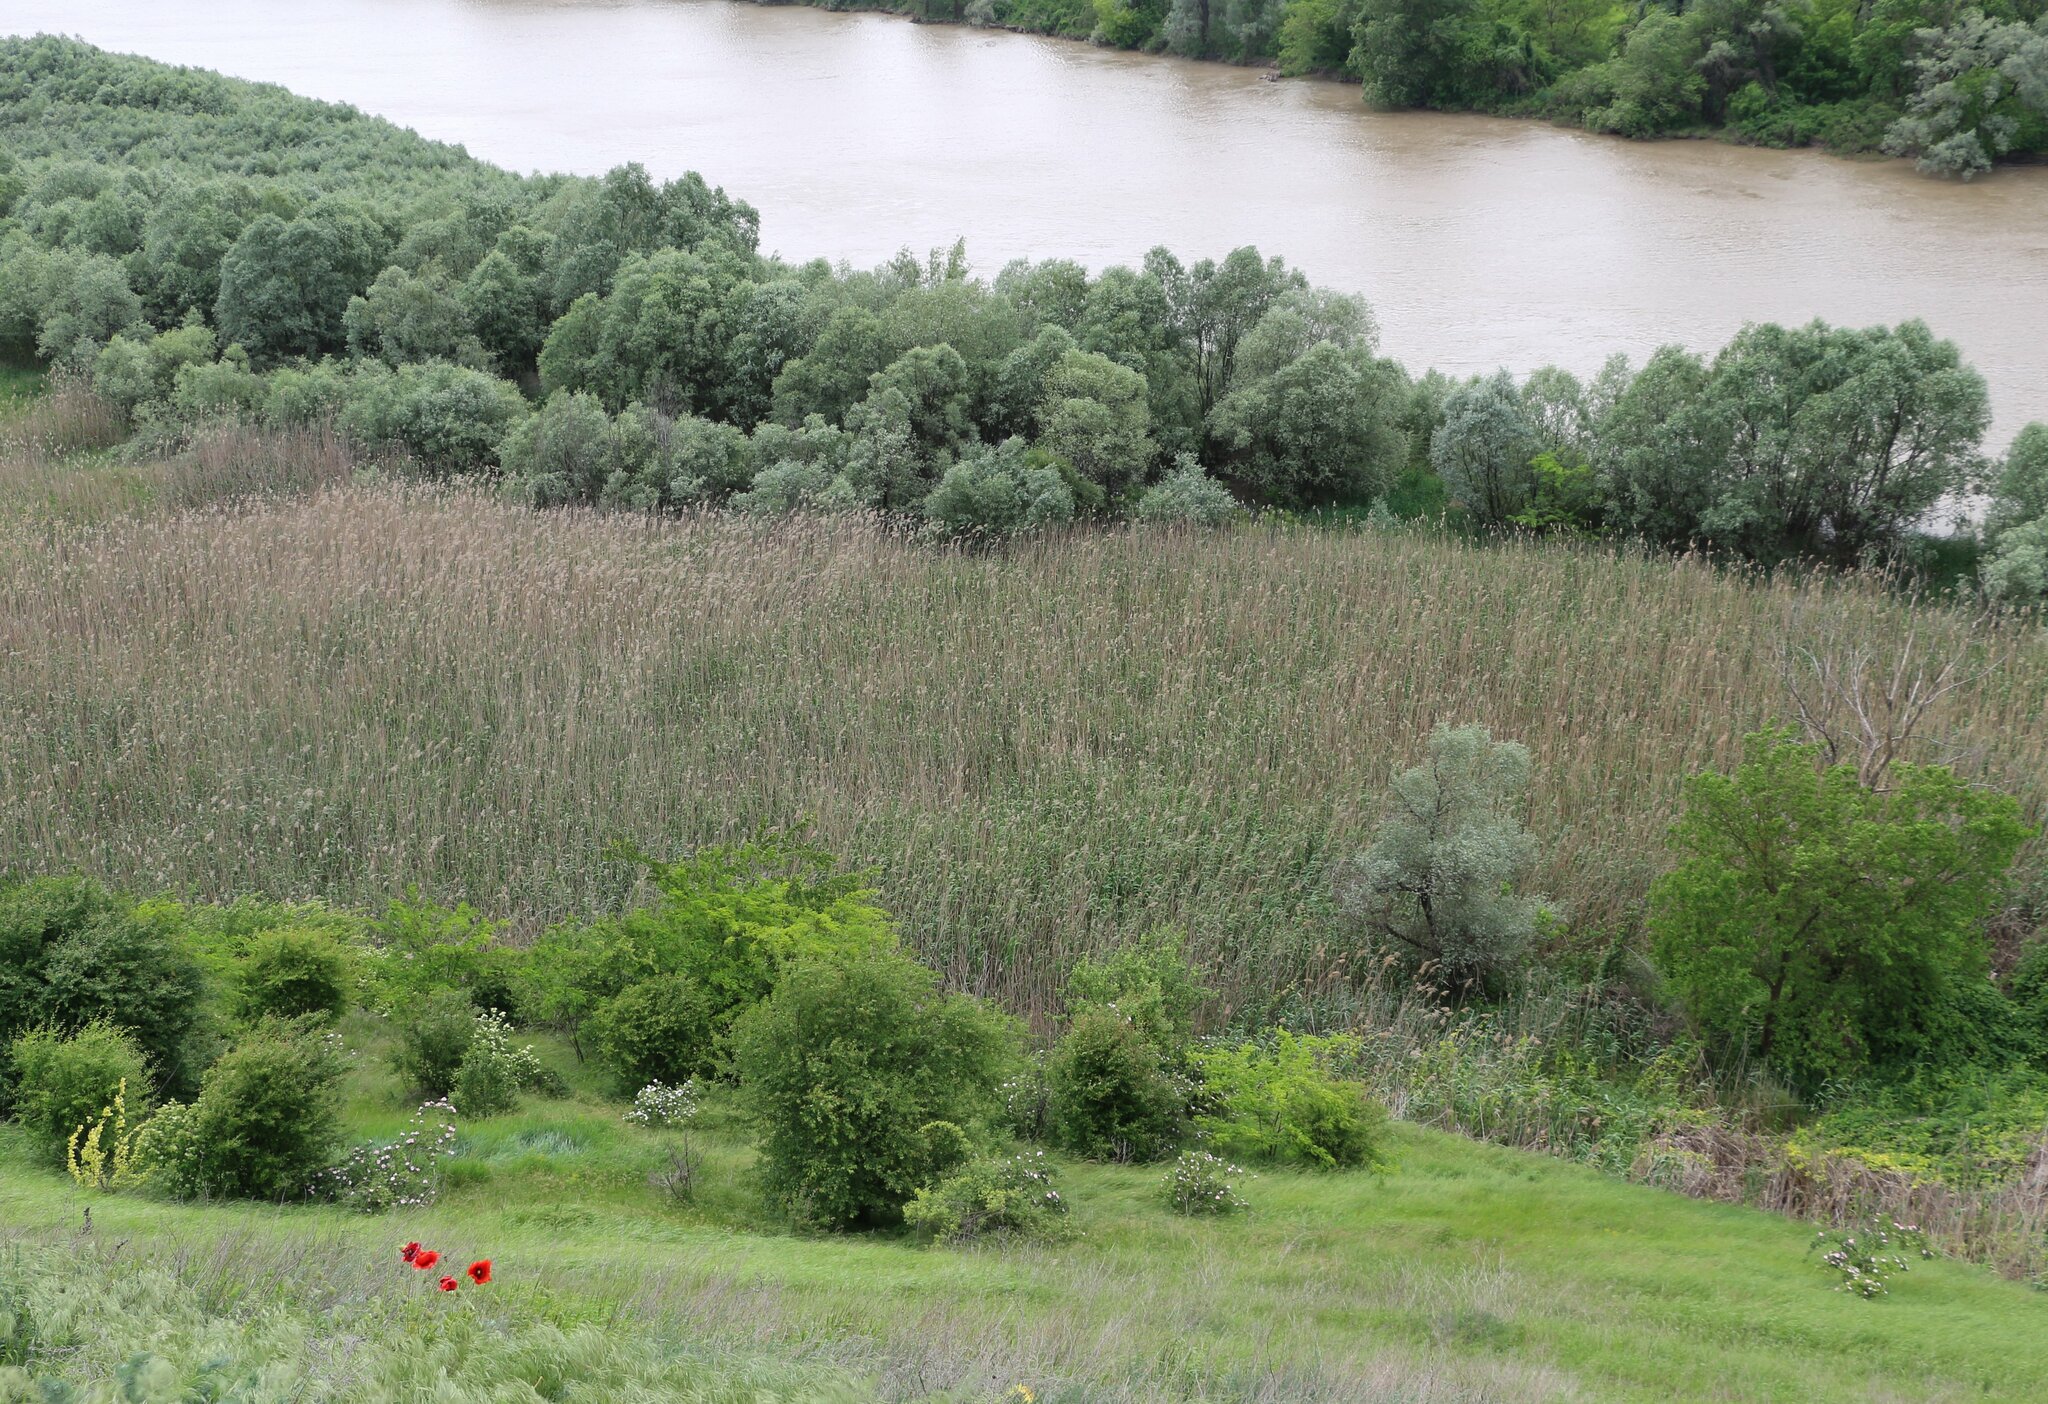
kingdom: Plantae
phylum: Tracheophyta
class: Liliopsida
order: Poales
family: Poaceae
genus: Phragmites
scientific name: Phragmites australis
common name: Common reed
